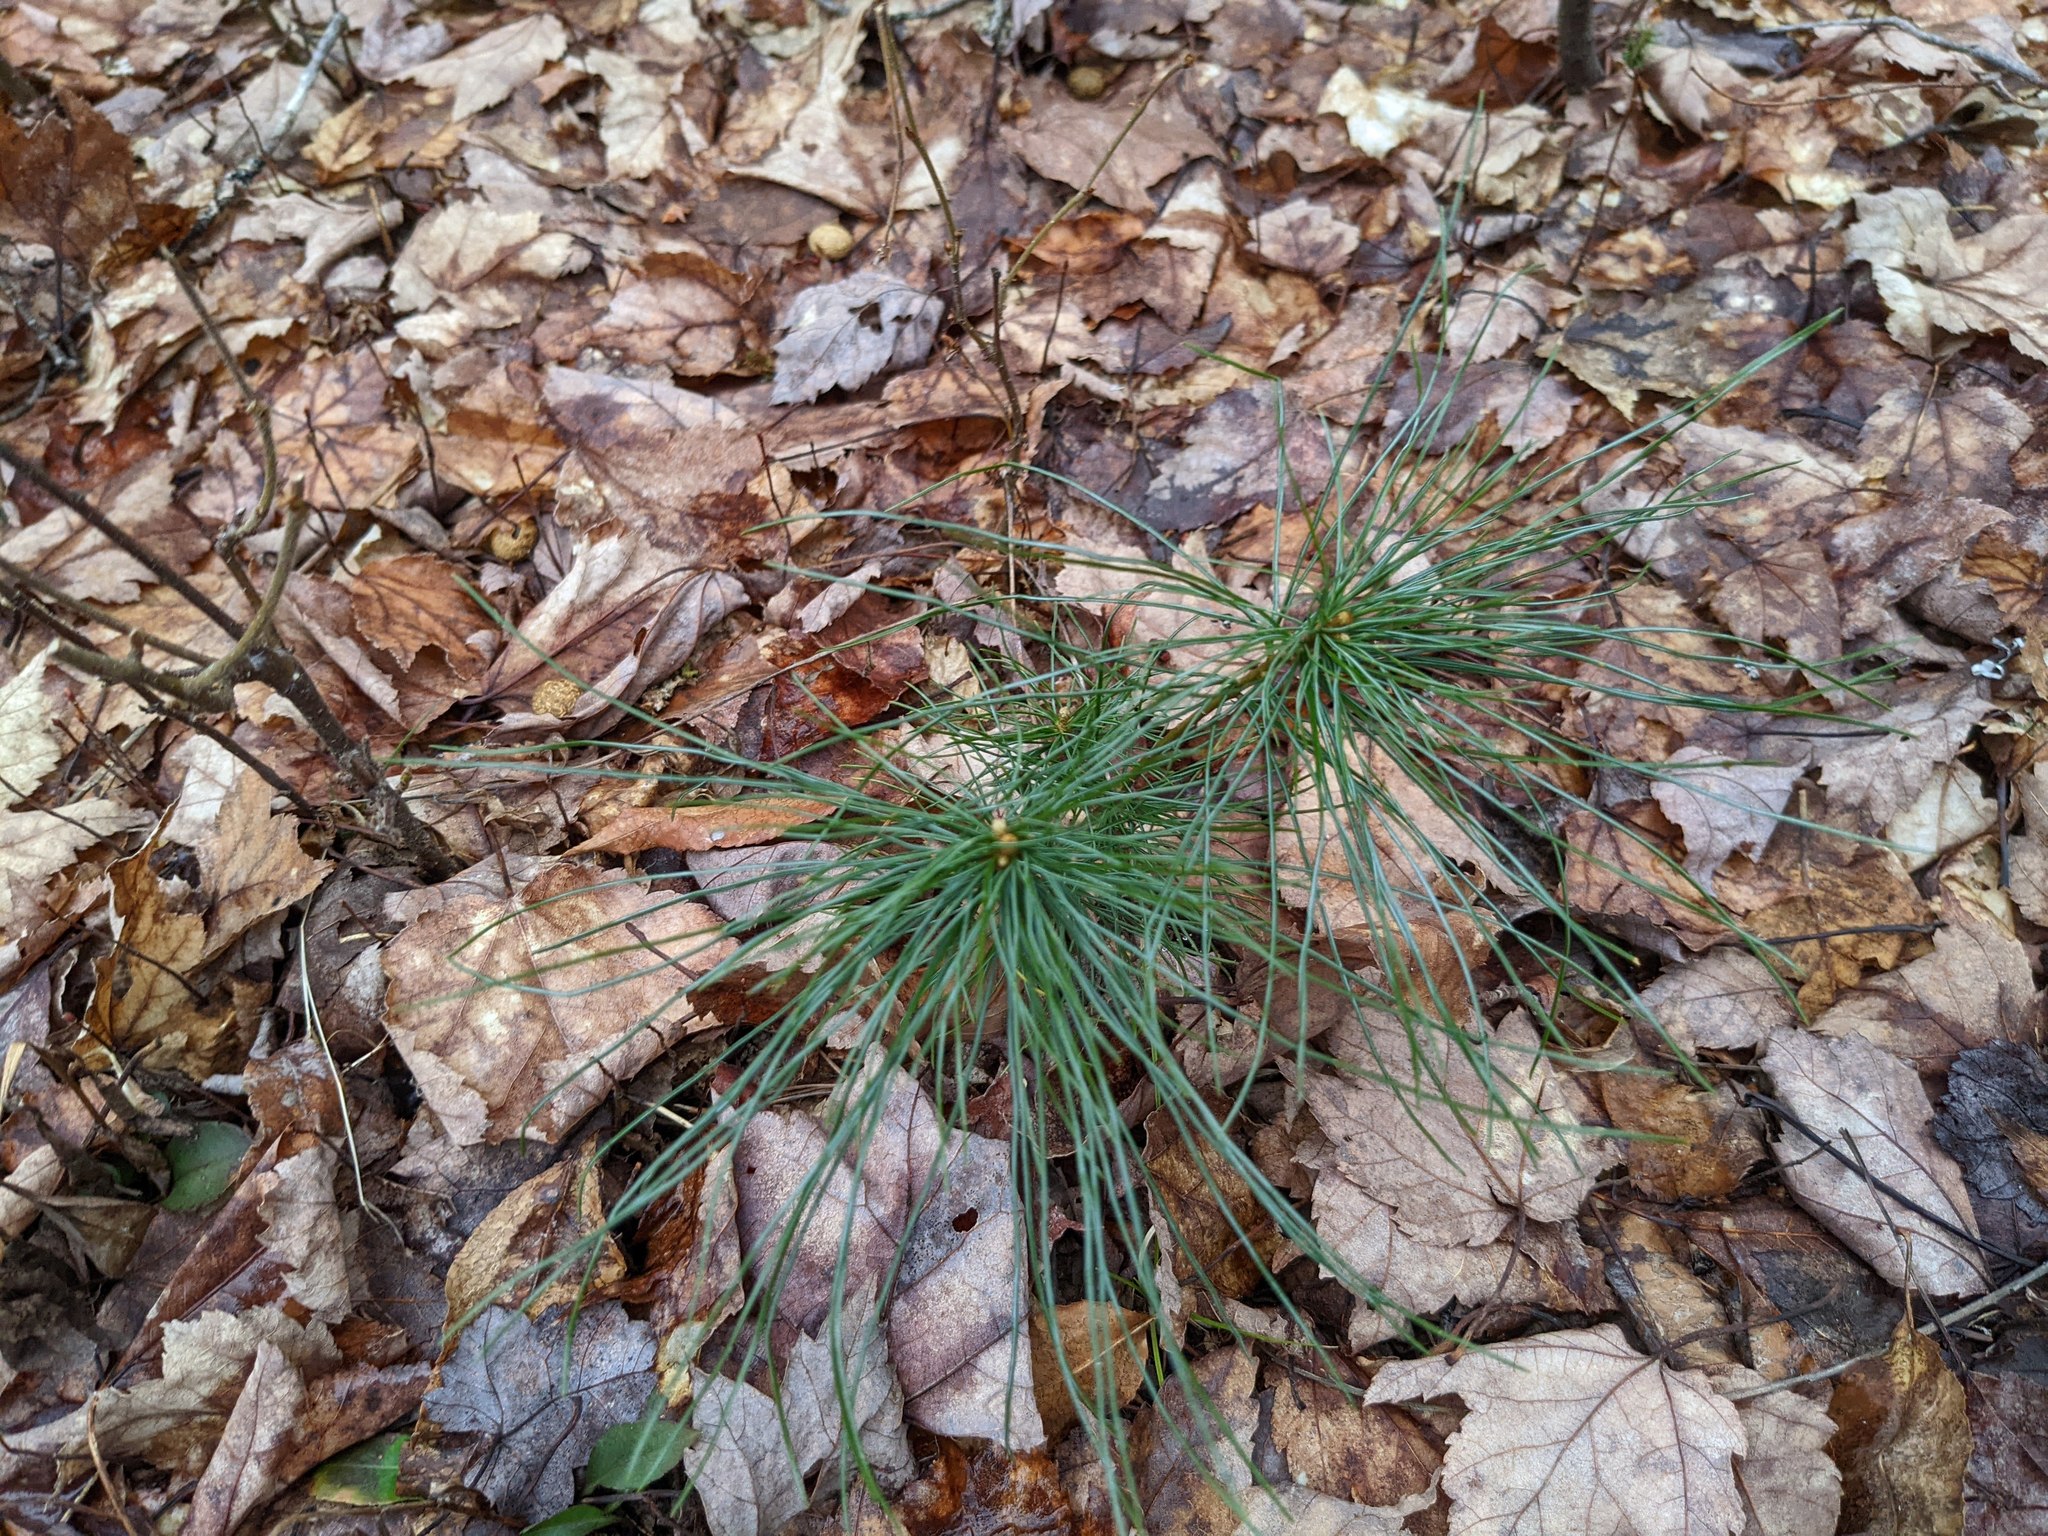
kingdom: Plantae
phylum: Tracheophyta
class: Pinopsida
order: Pinales
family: Pinaceae
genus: Pinus
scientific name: Pinus strobus
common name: Weymouth pine
